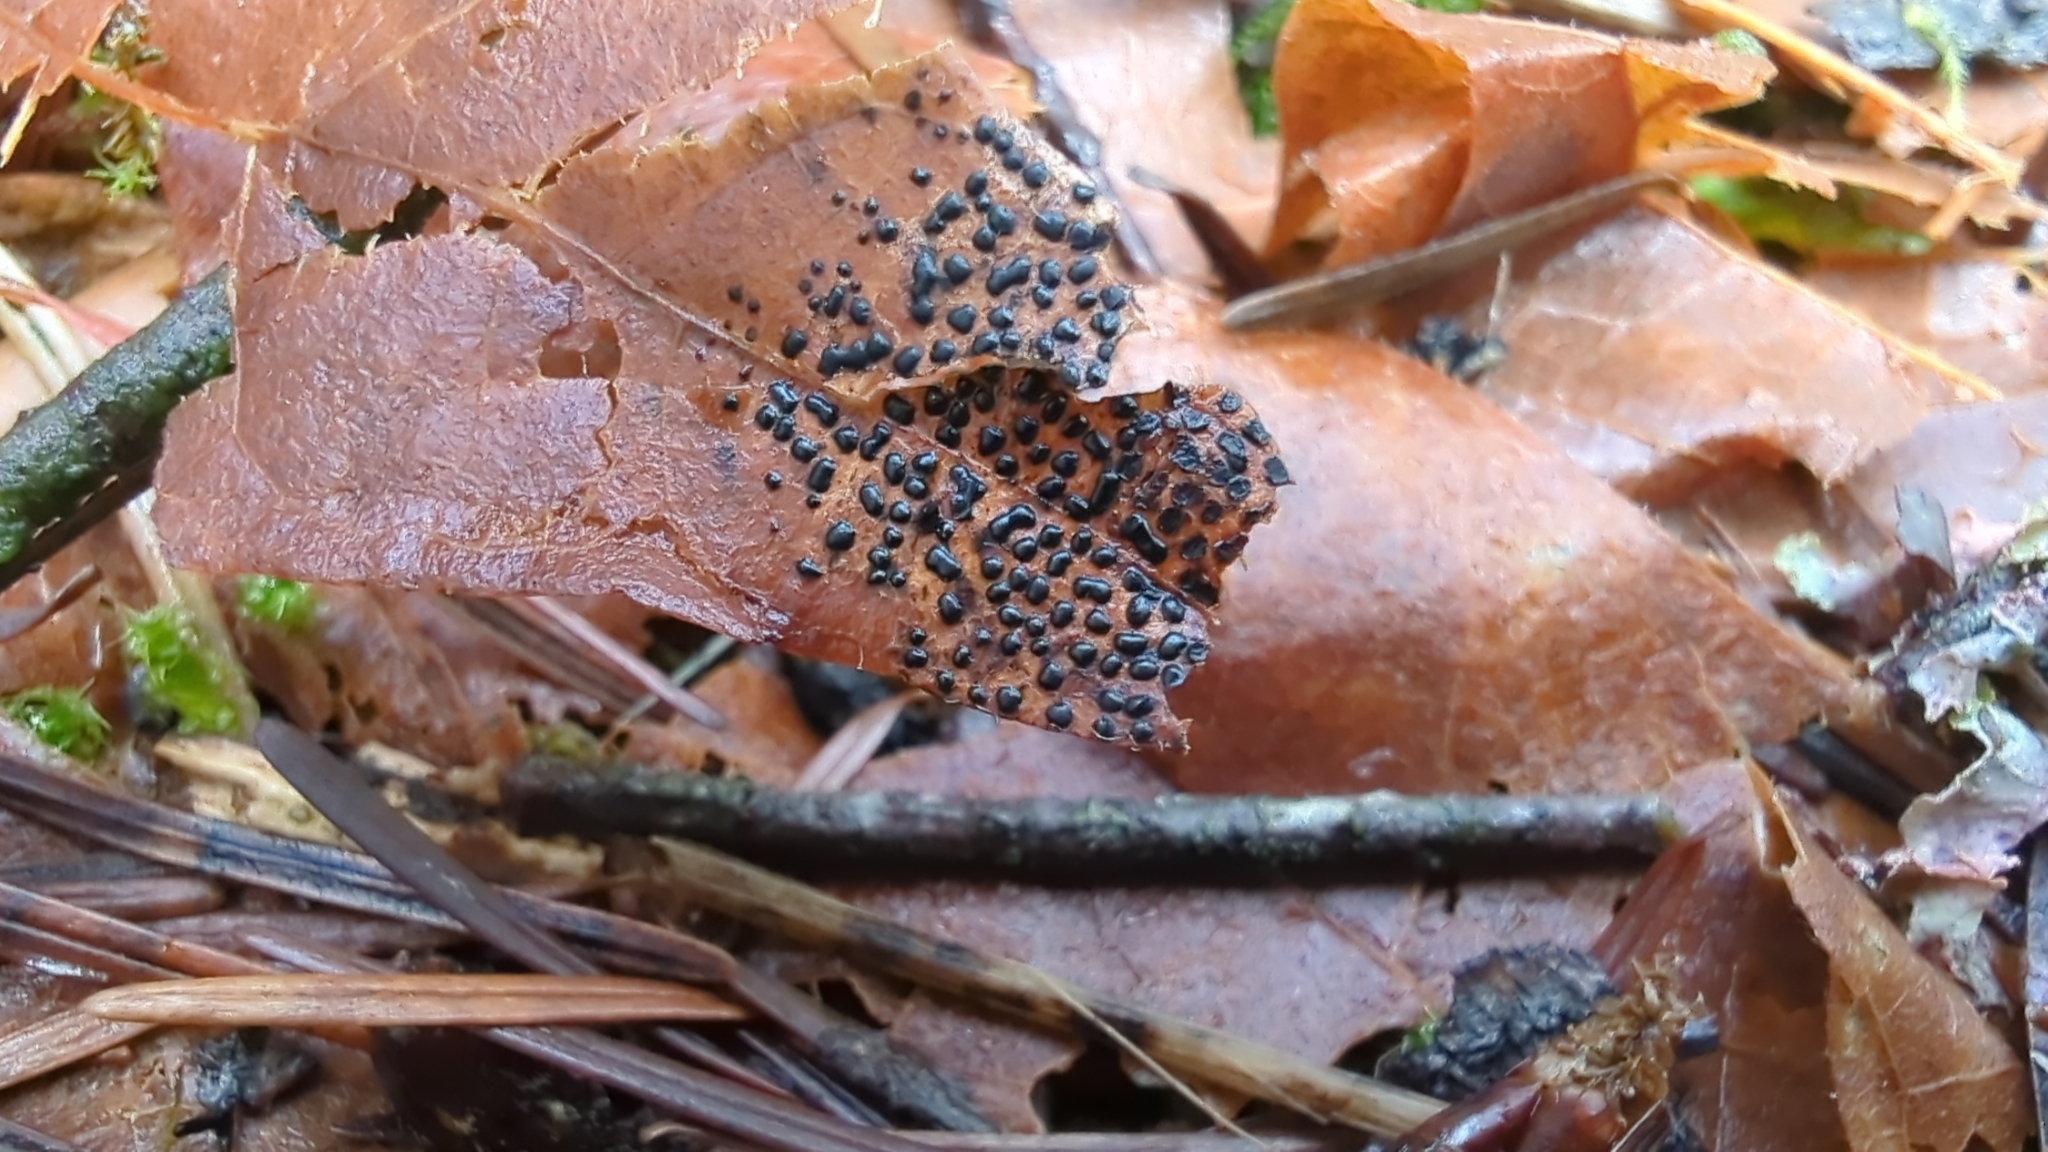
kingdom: Fungi
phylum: Ascomycota
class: Leotiomycetes
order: Rhytismatales
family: Rhytismataceae
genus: Rhytisma
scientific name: Rhytisma punctatum
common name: Speckled tar spot
